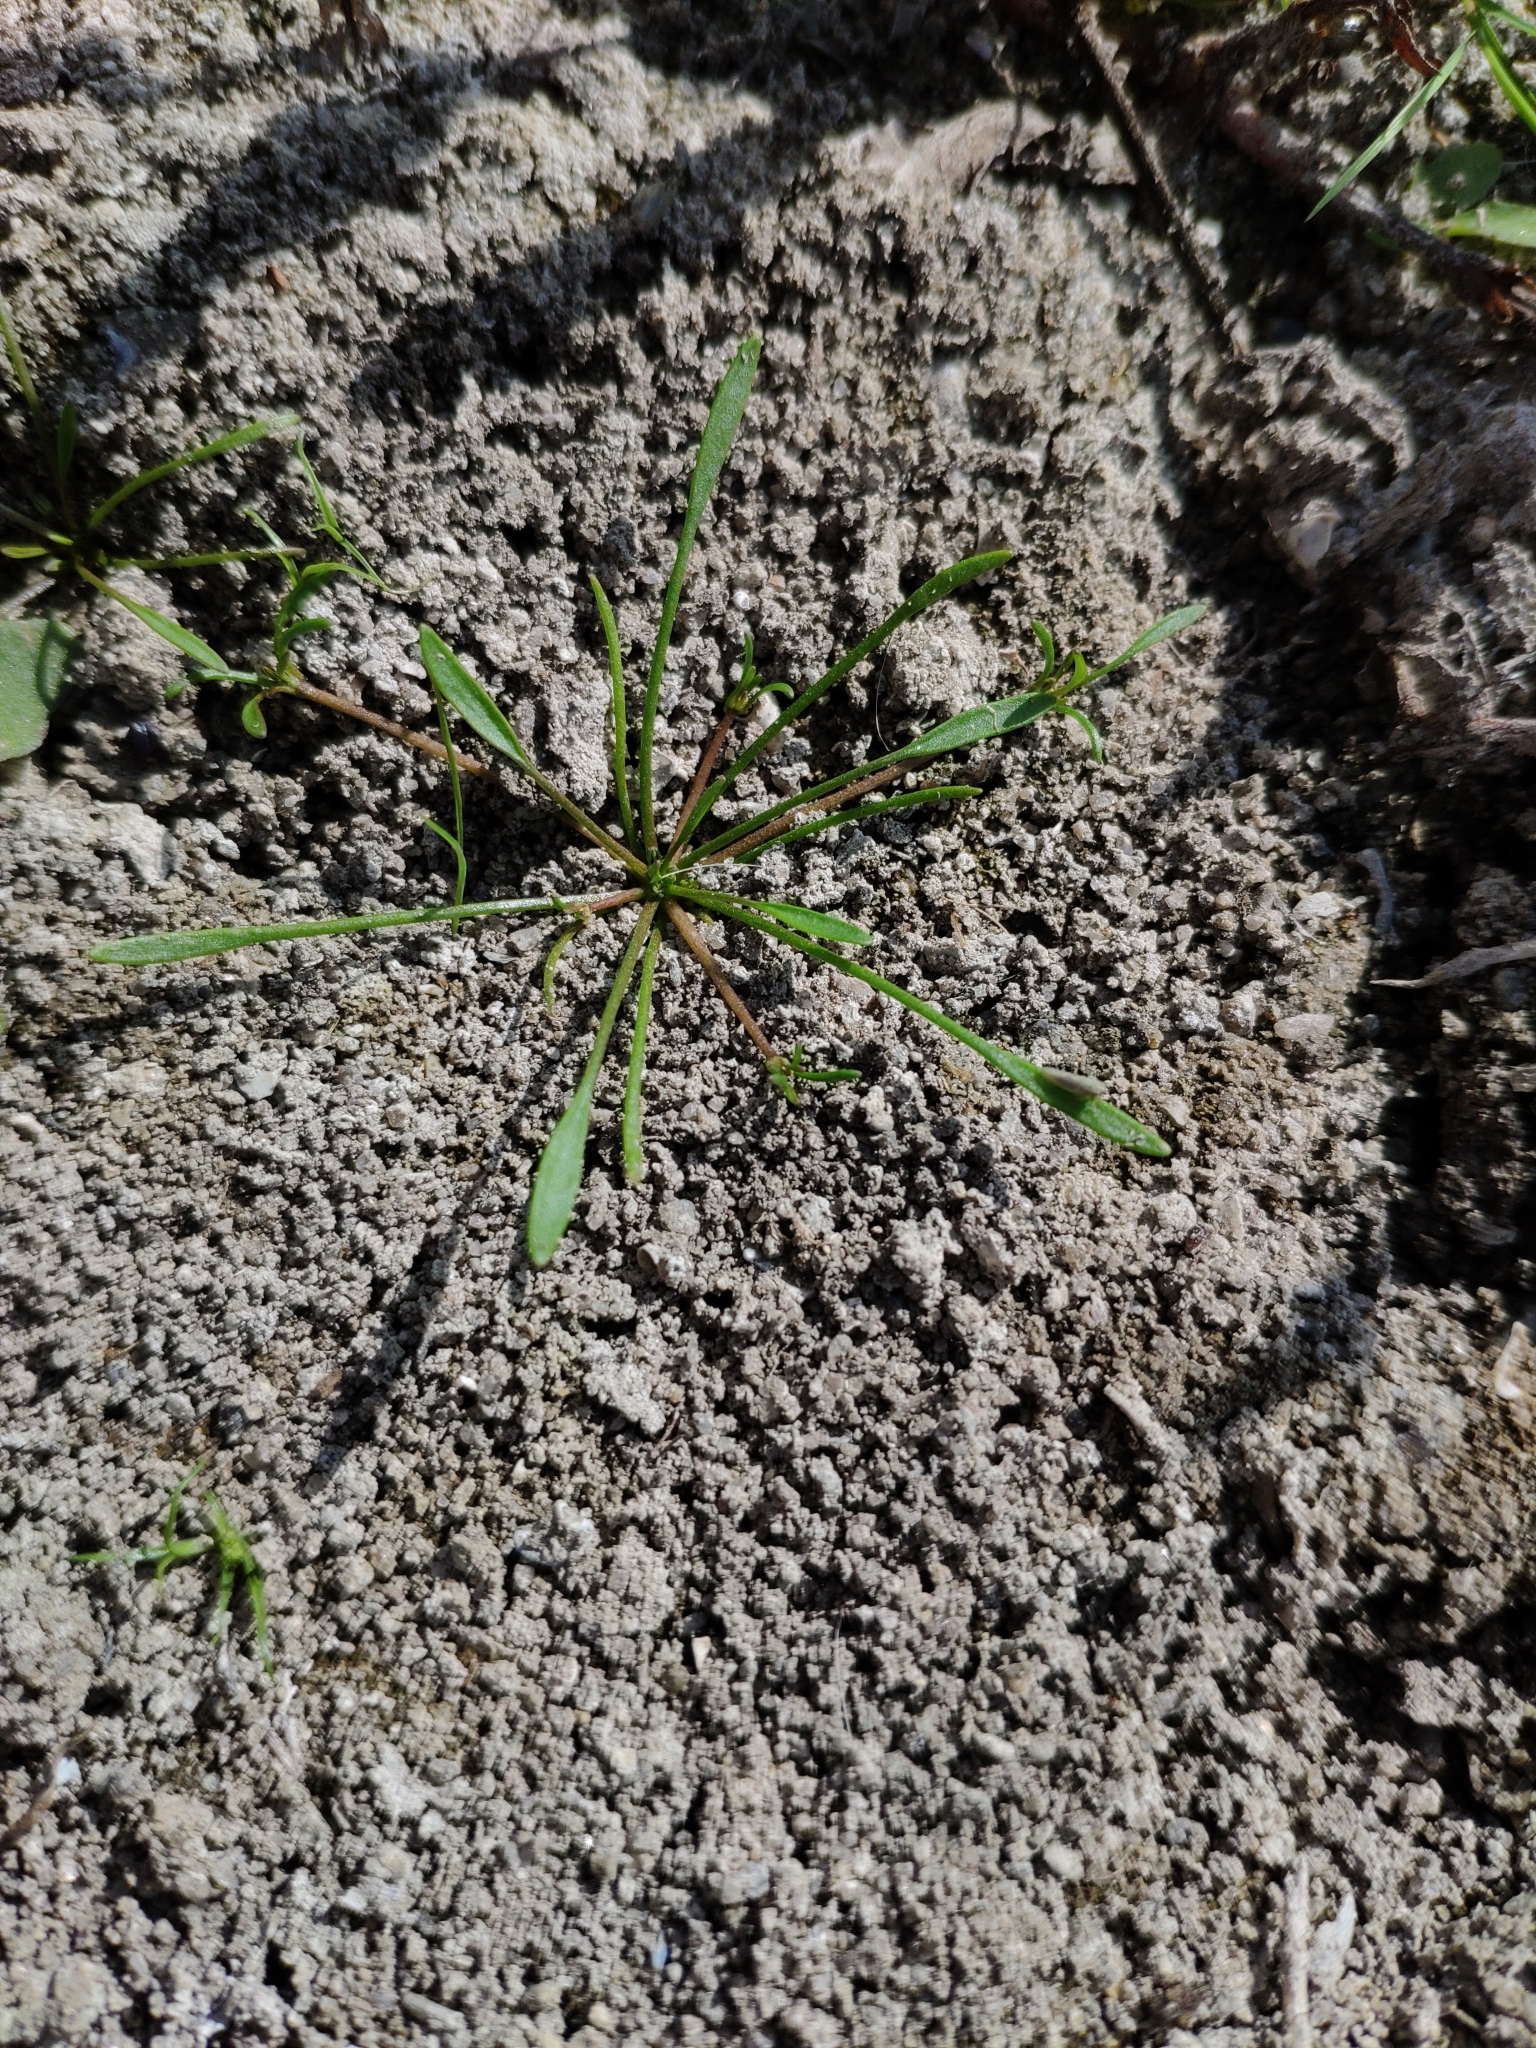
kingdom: Plantae
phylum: Tracheophyta
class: Magnoliopsida
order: Lamiales
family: Scrophulariaceae
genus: Limosella
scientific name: Limosella aquatica
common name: Mudwort
